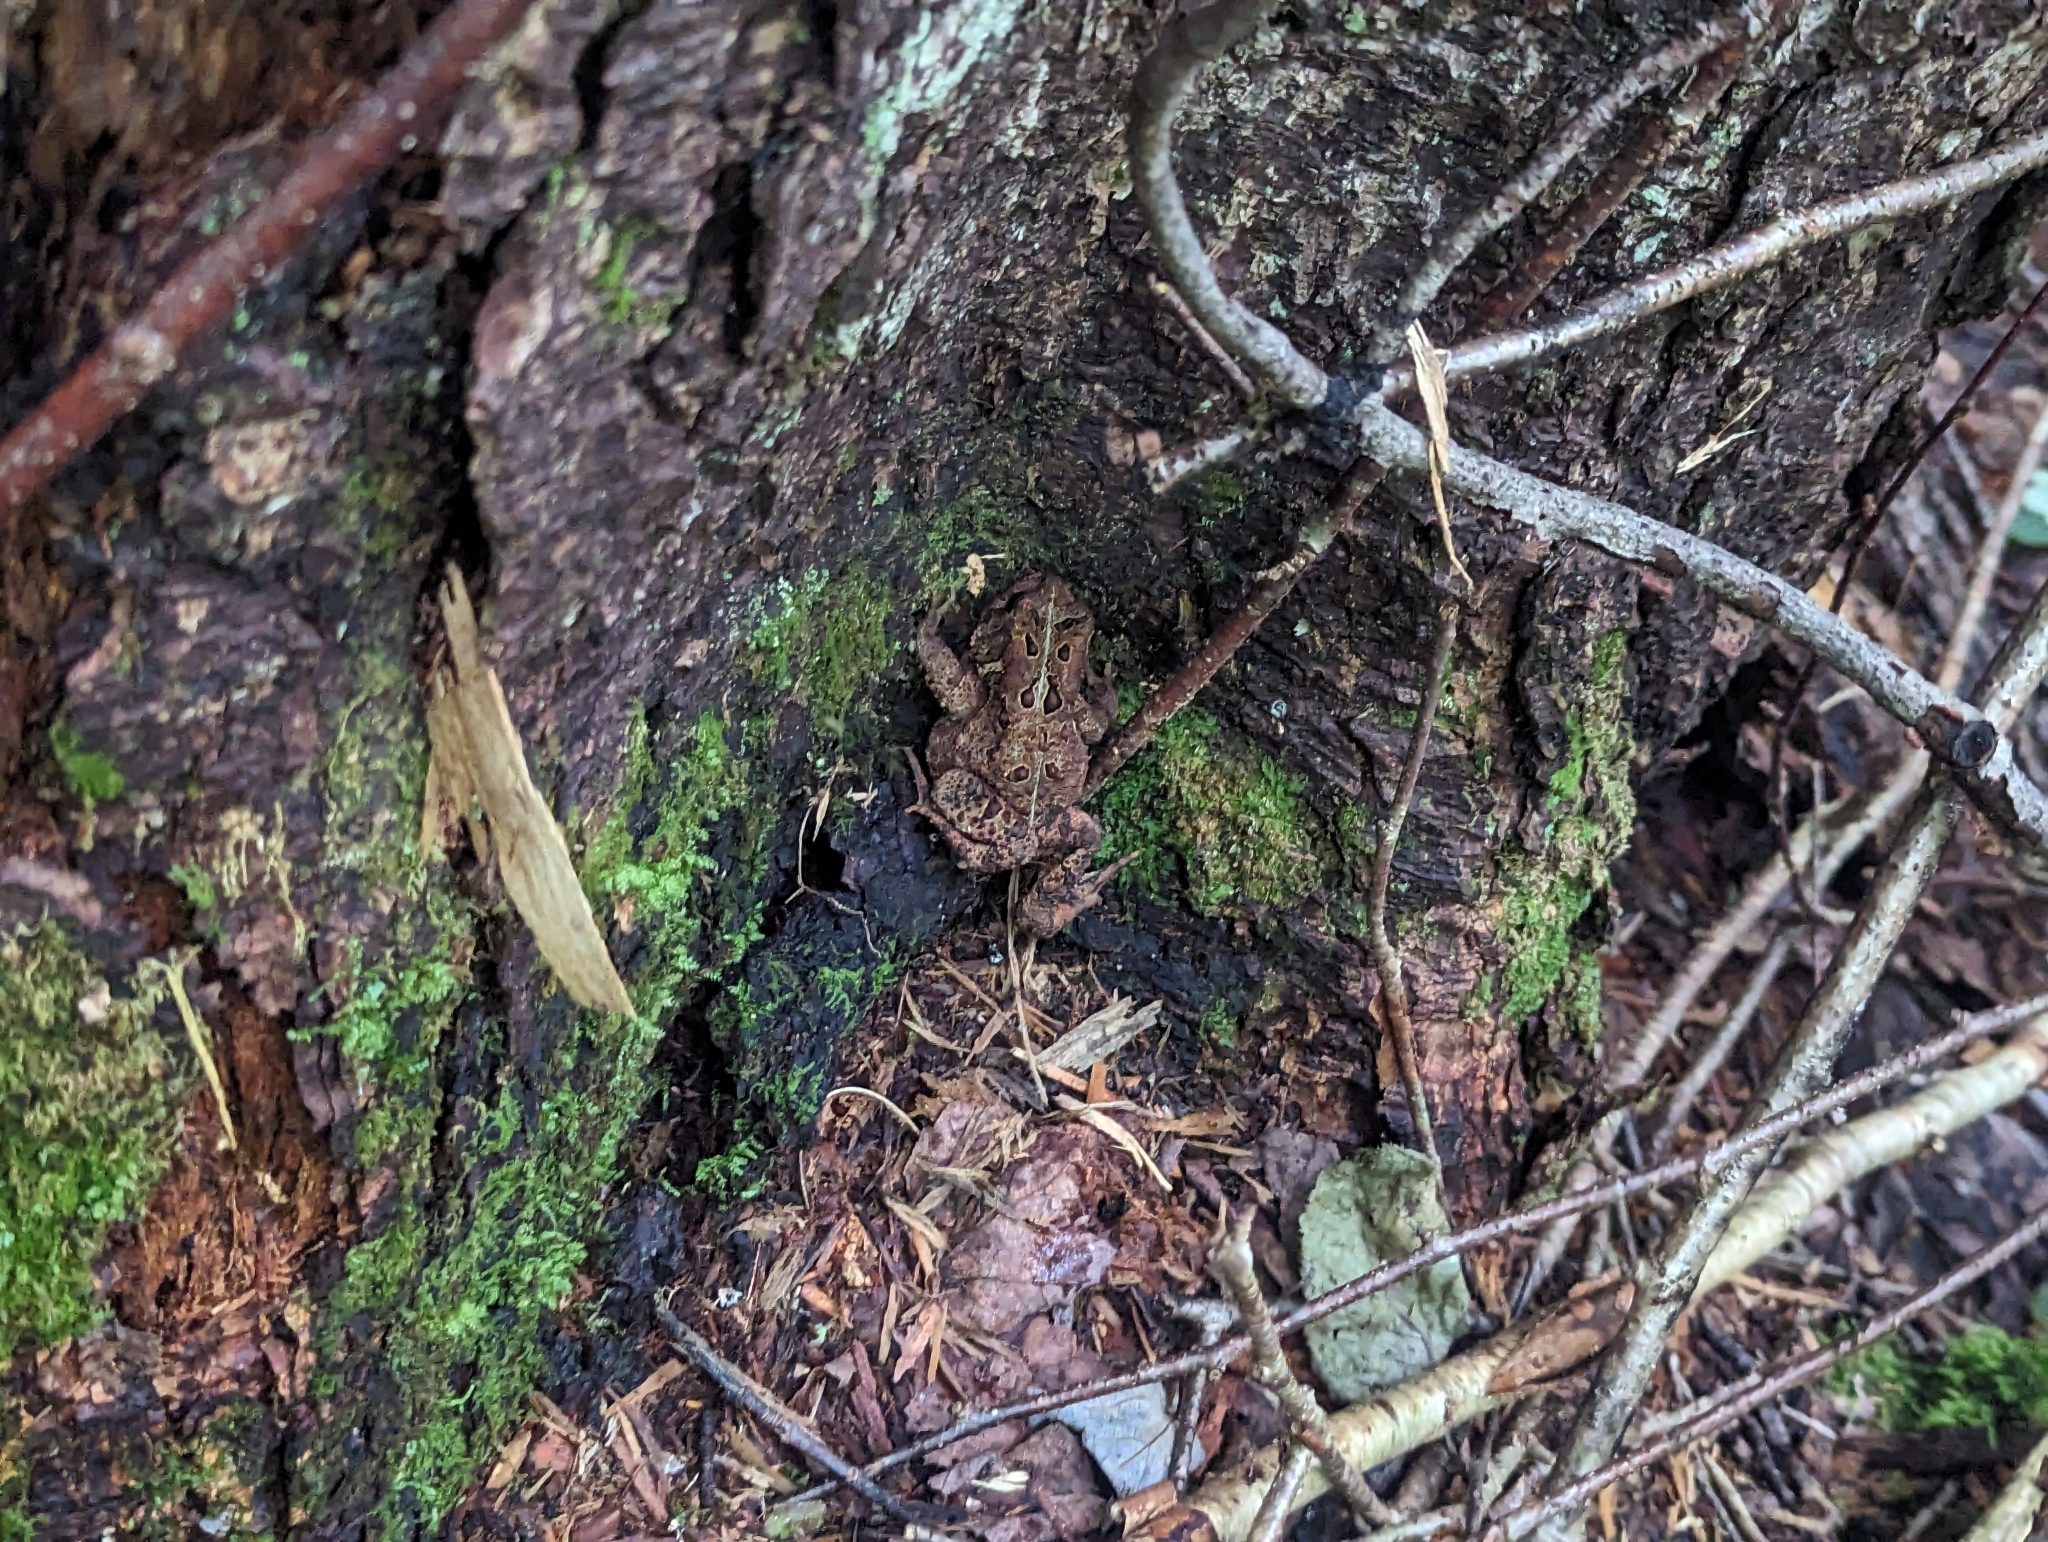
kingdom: Animalia
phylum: Chordata
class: Amphibia
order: Anura
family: Bufonidae
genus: Anaxyrus
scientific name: Anaxyrus americanus
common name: American toad
